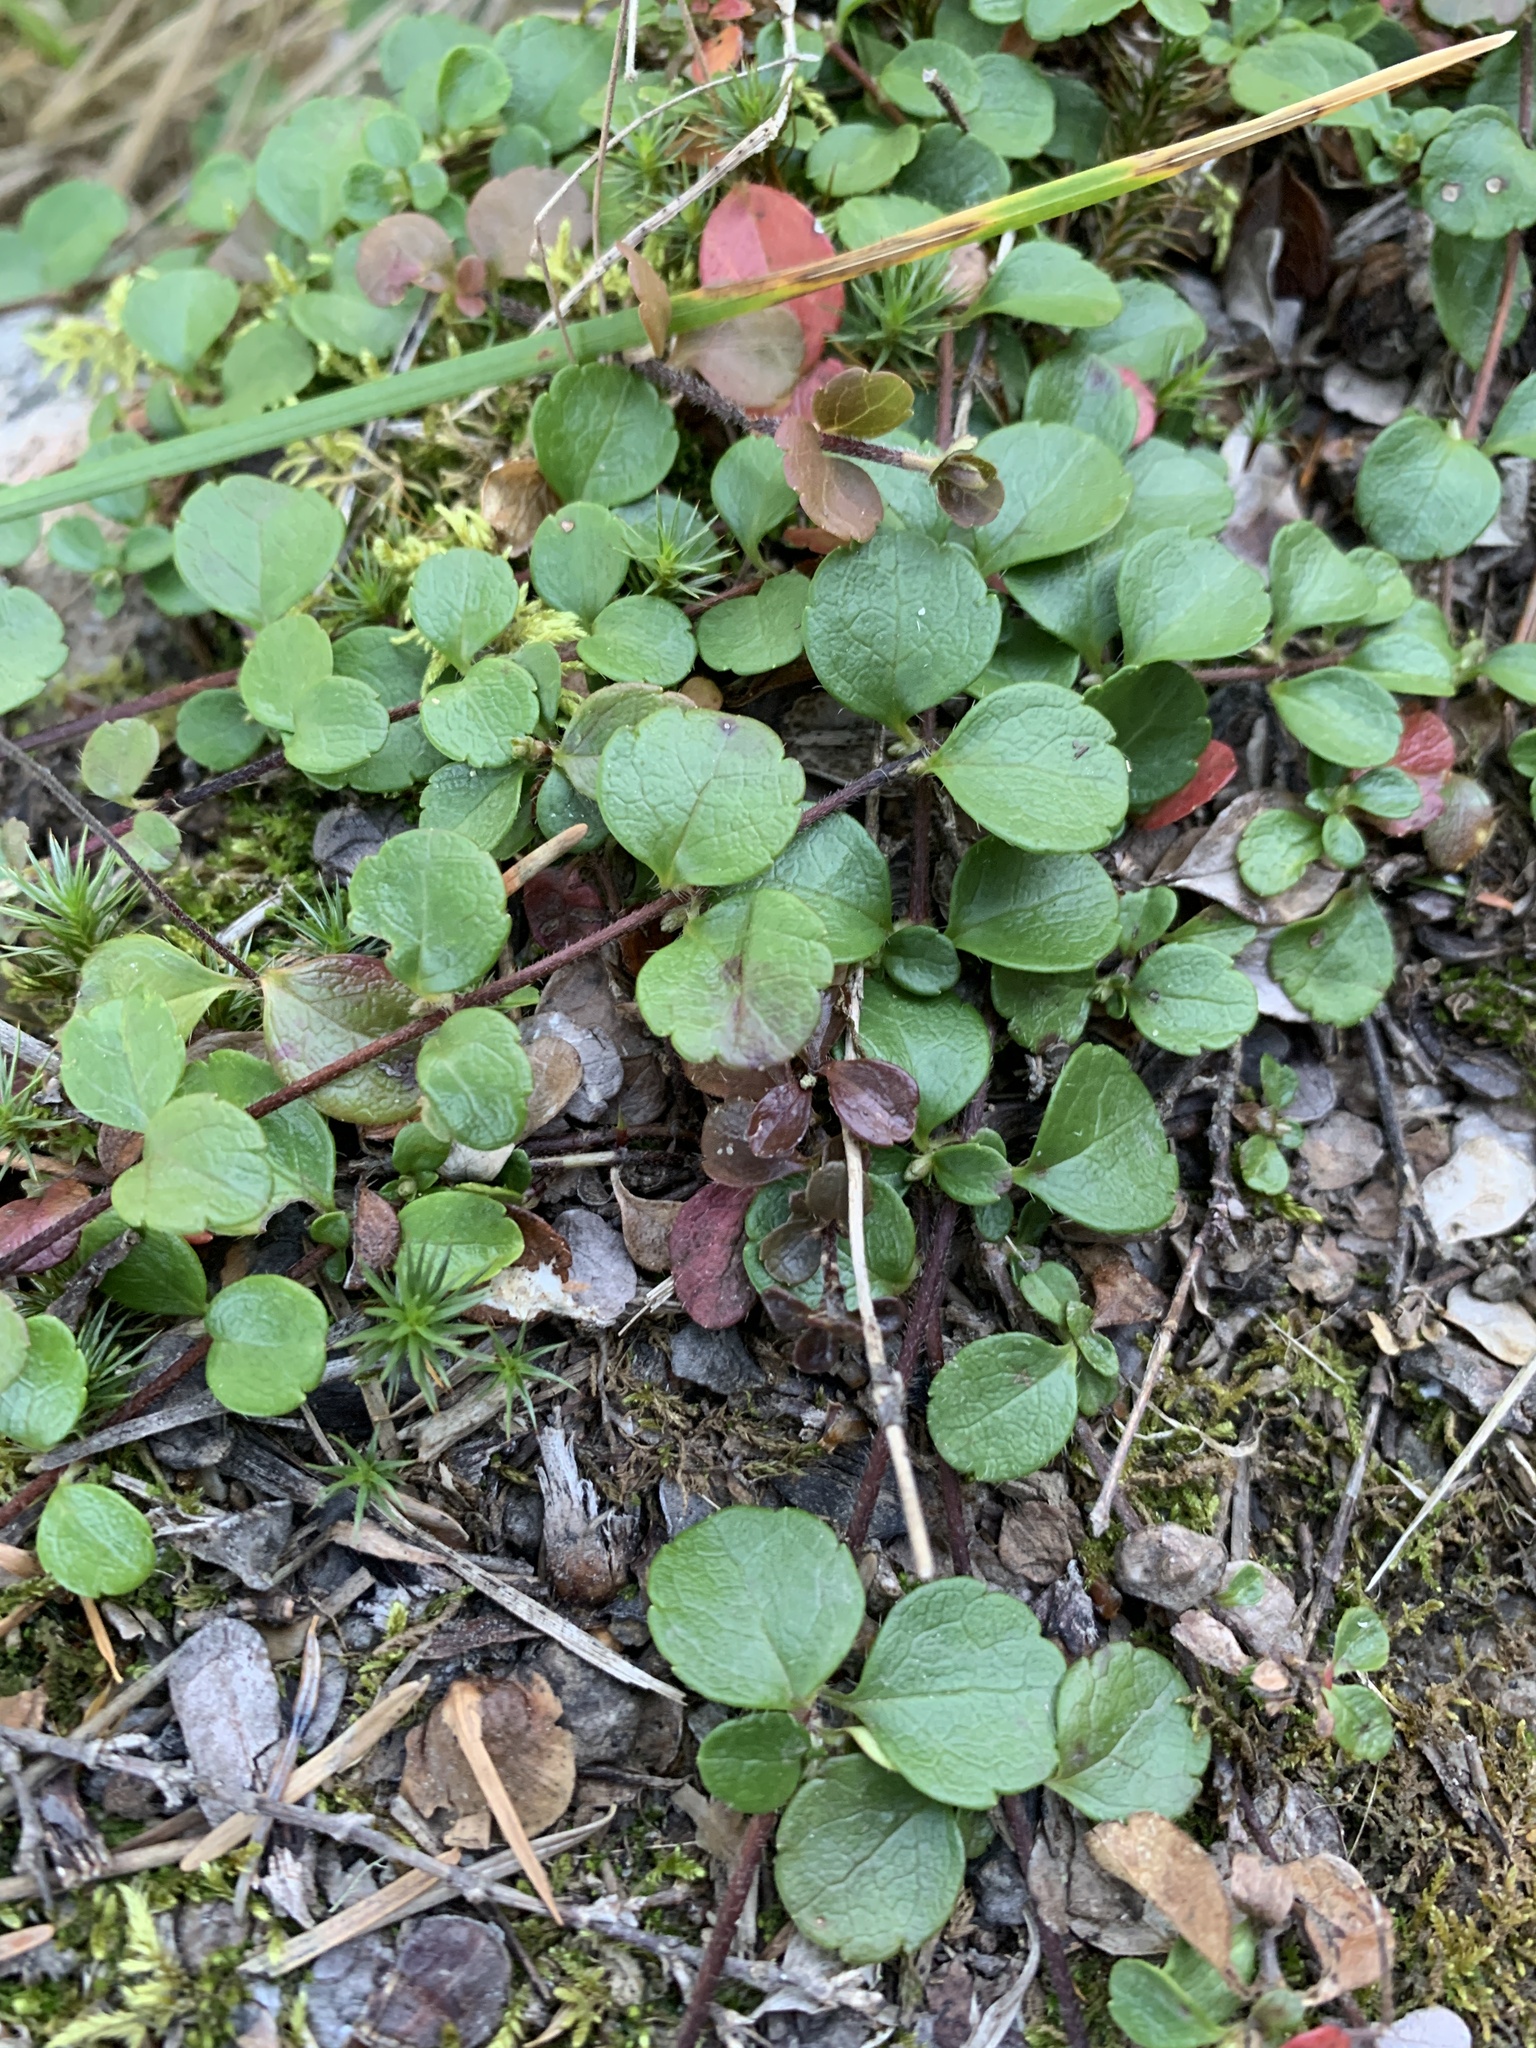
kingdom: Plantae
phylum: Tracheophyta
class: Magnoliopsida
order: Dipsacales
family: Caprifoliaceae
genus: Linnaea
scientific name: Linnaea borealis
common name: Twinflower
